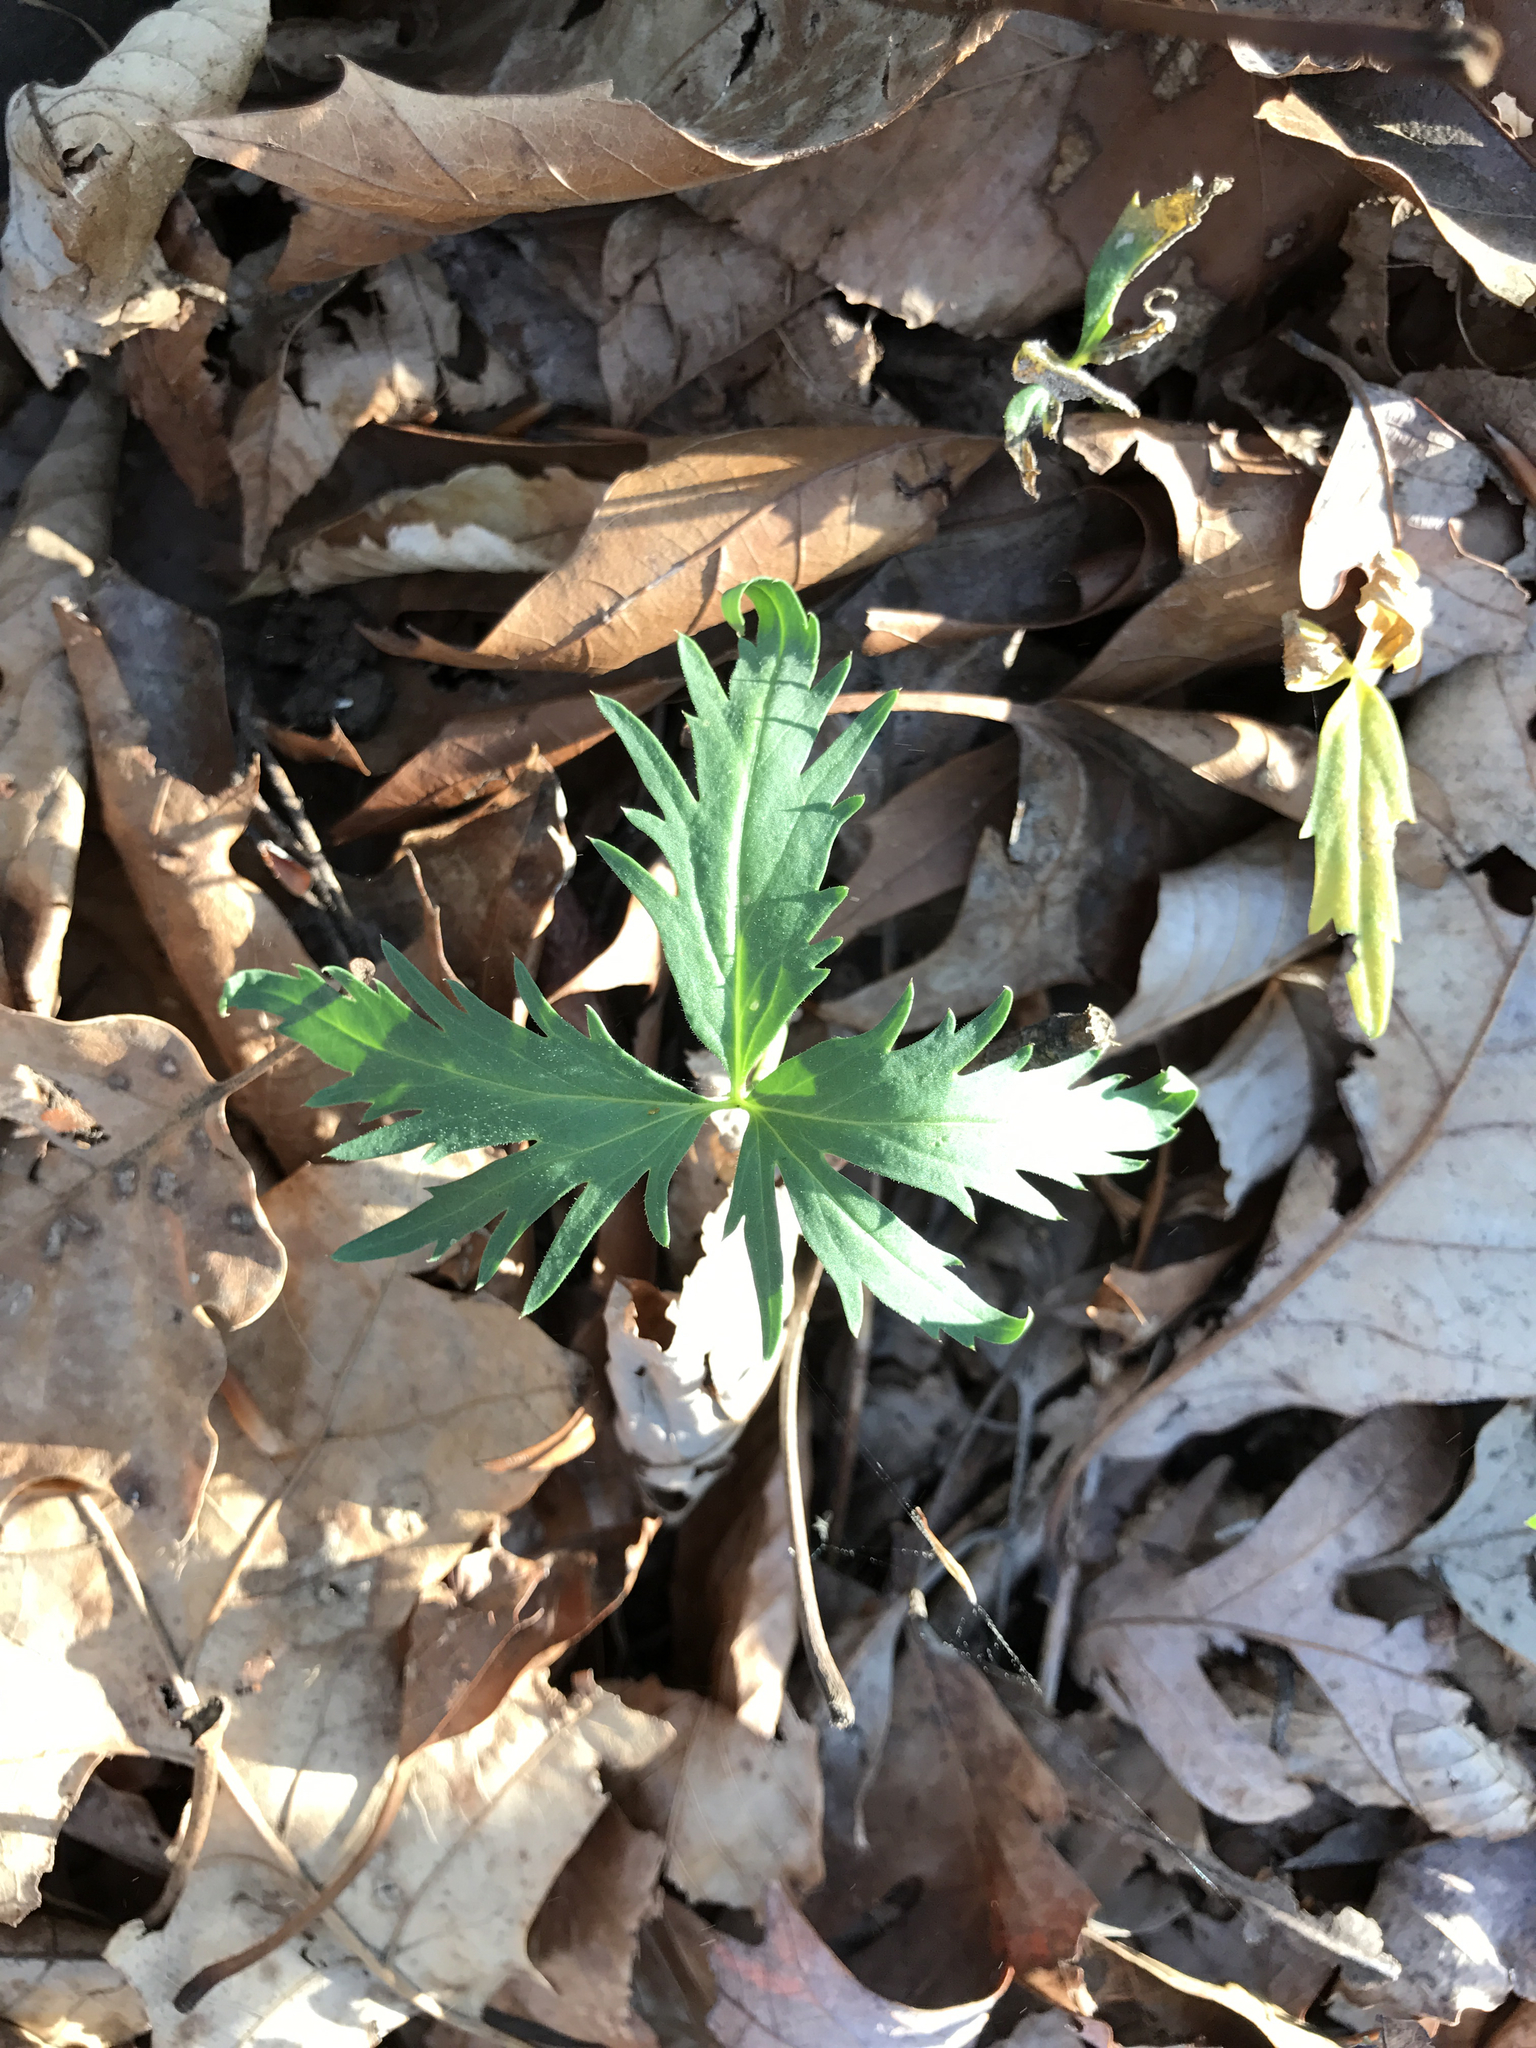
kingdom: Plantae
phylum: Tracheophyta
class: Magnoliopsida
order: Brassicales
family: Brassicaceae
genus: Cardamine
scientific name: Cardamine concatenata
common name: Cut-leaf toothcup
